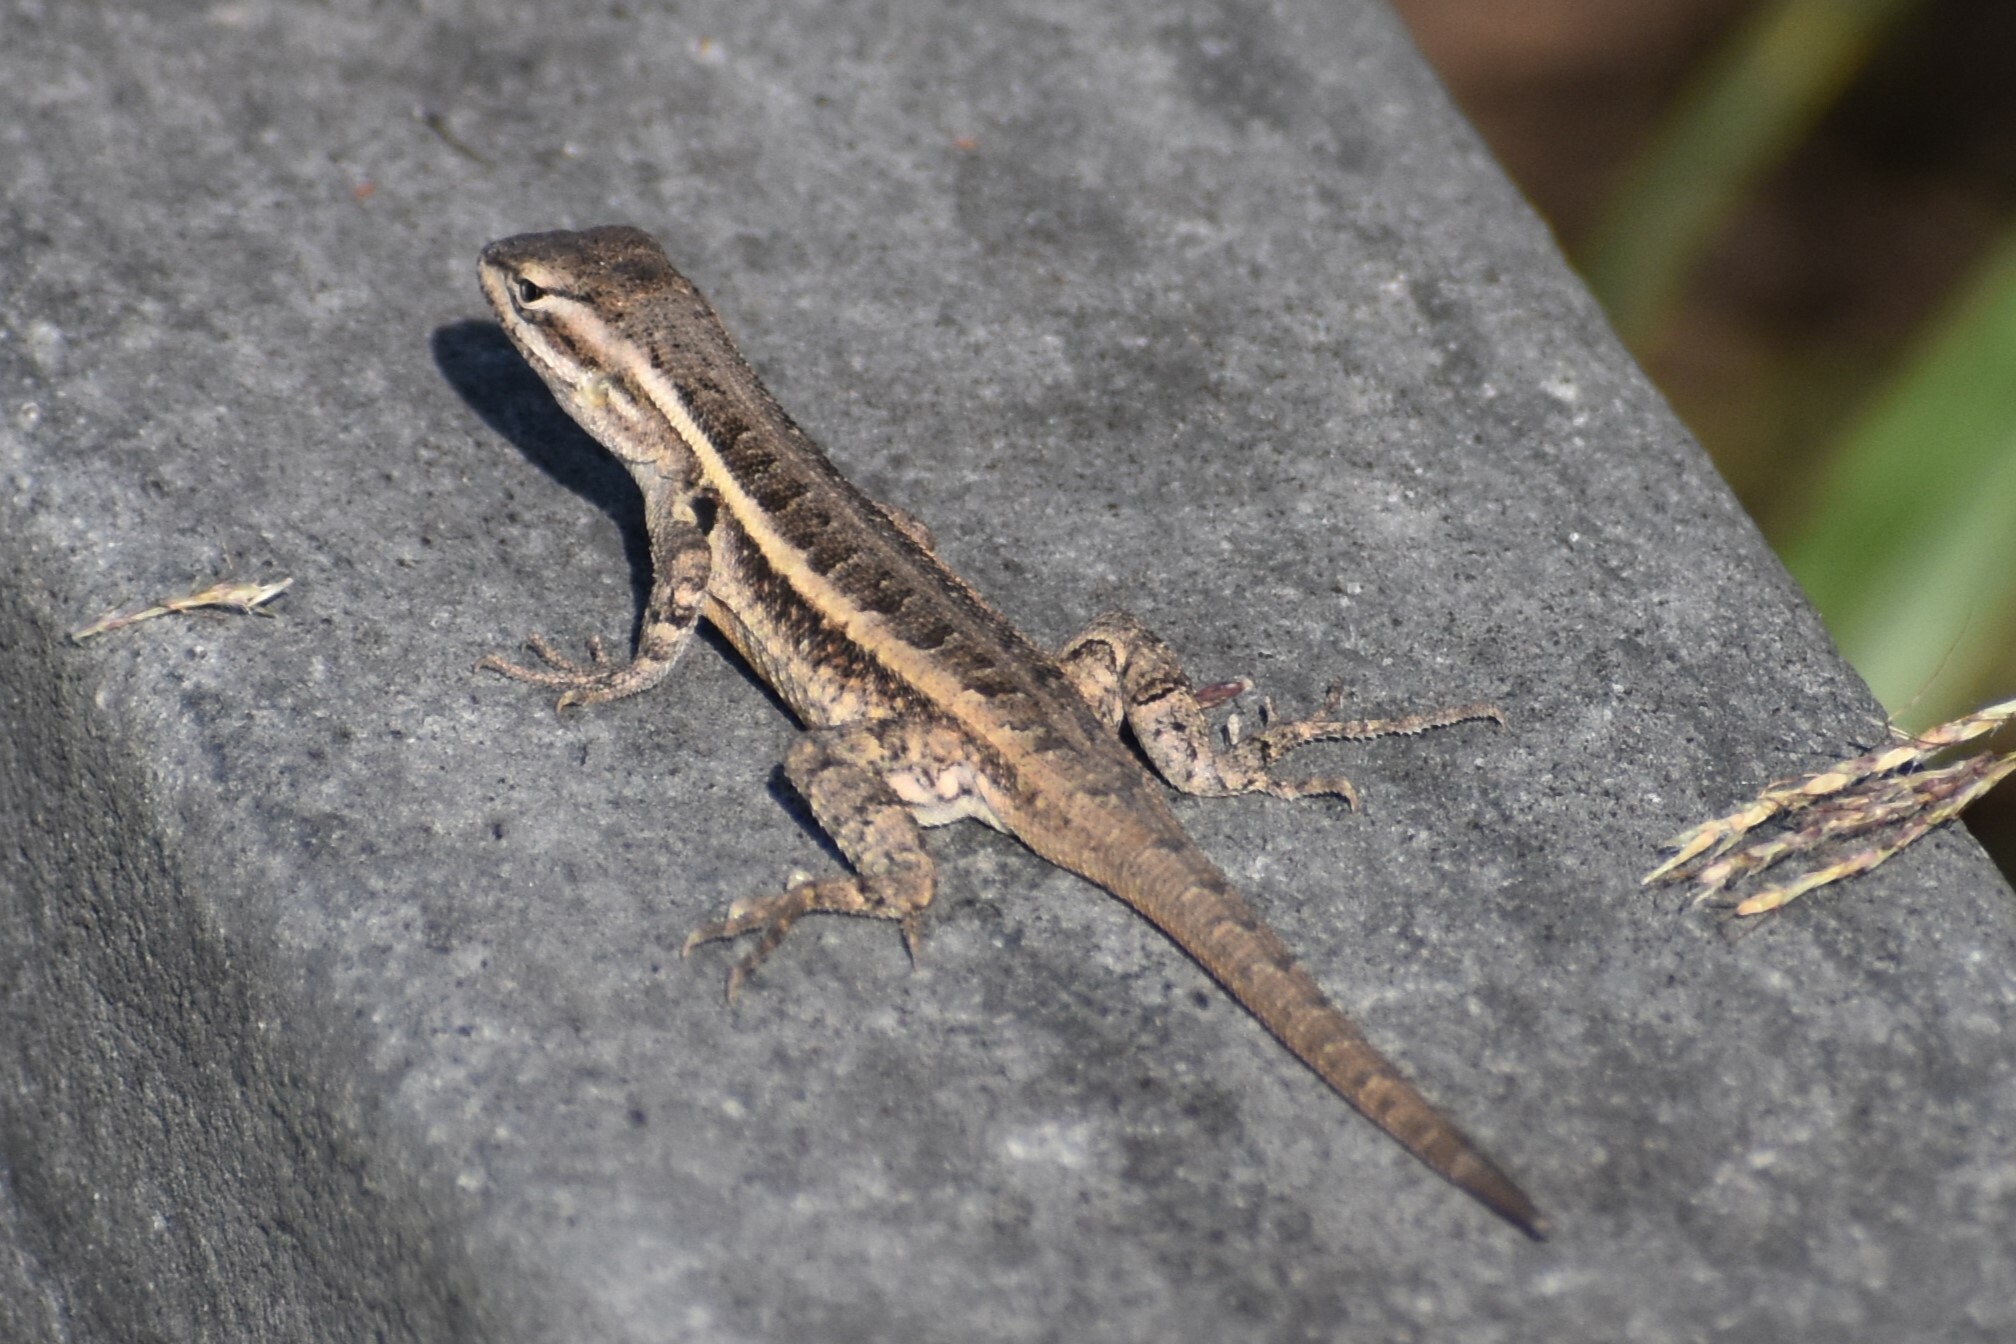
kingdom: Animalia
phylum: Chordata
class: Squamata
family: Phrynosomatidae
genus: Sceloporus
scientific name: Sceloporus variabilis
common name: Rosebelly lizard
